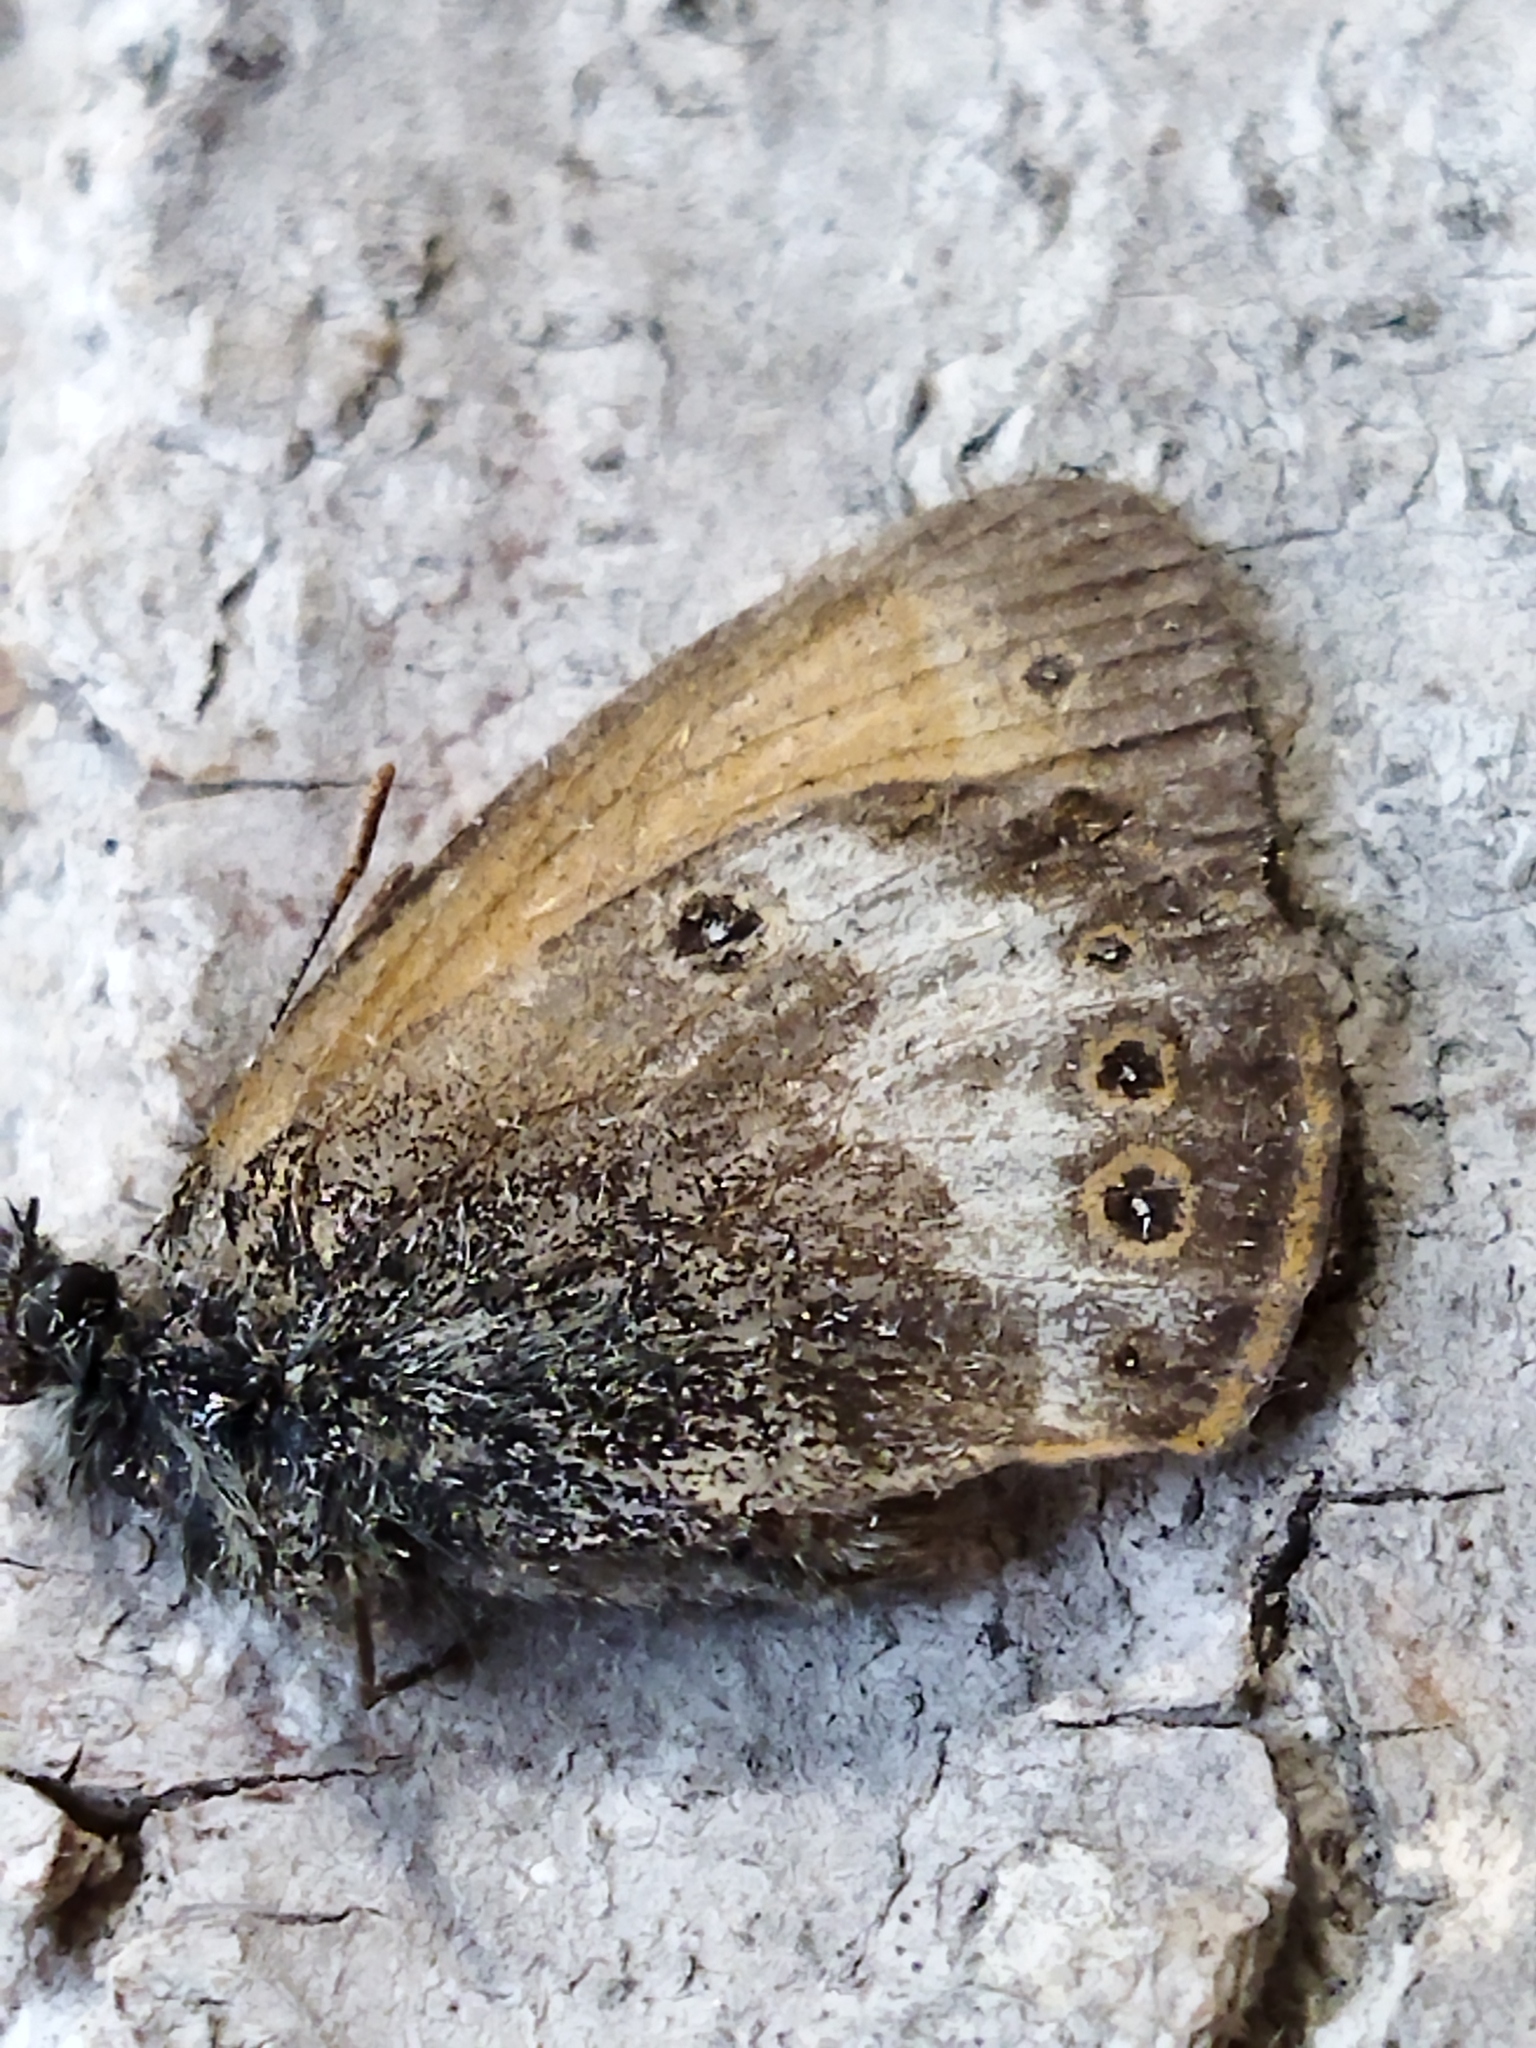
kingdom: Animalia
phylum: Arthropoda
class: Insecta
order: Lepidoptera
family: Nymphalidae
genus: Coenonympha
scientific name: Coenonympha arcania
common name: Pearly heath
